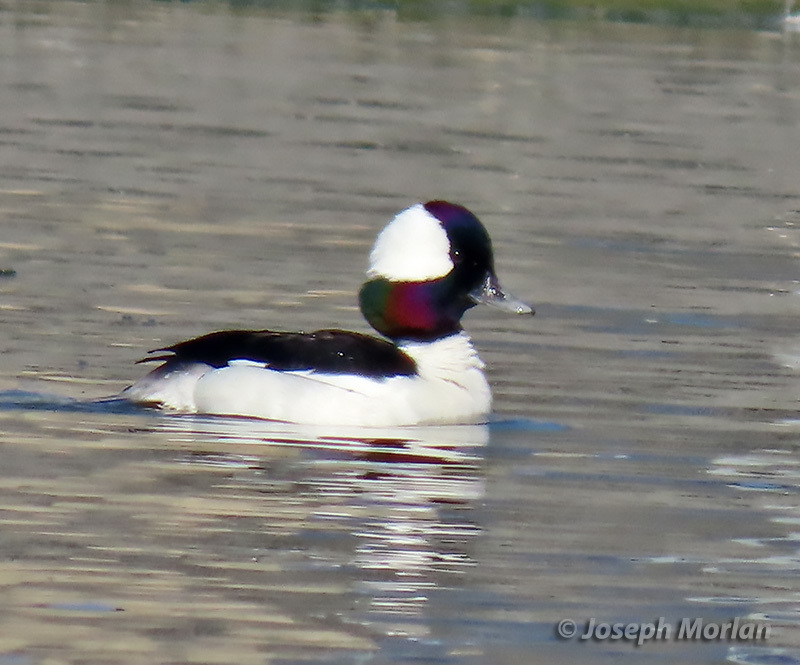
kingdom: Animalia
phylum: Chordata
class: Aves
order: Anseriformes
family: Anatidae
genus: Bucephala
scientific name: Bucephala albeola
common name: Bufflehead
